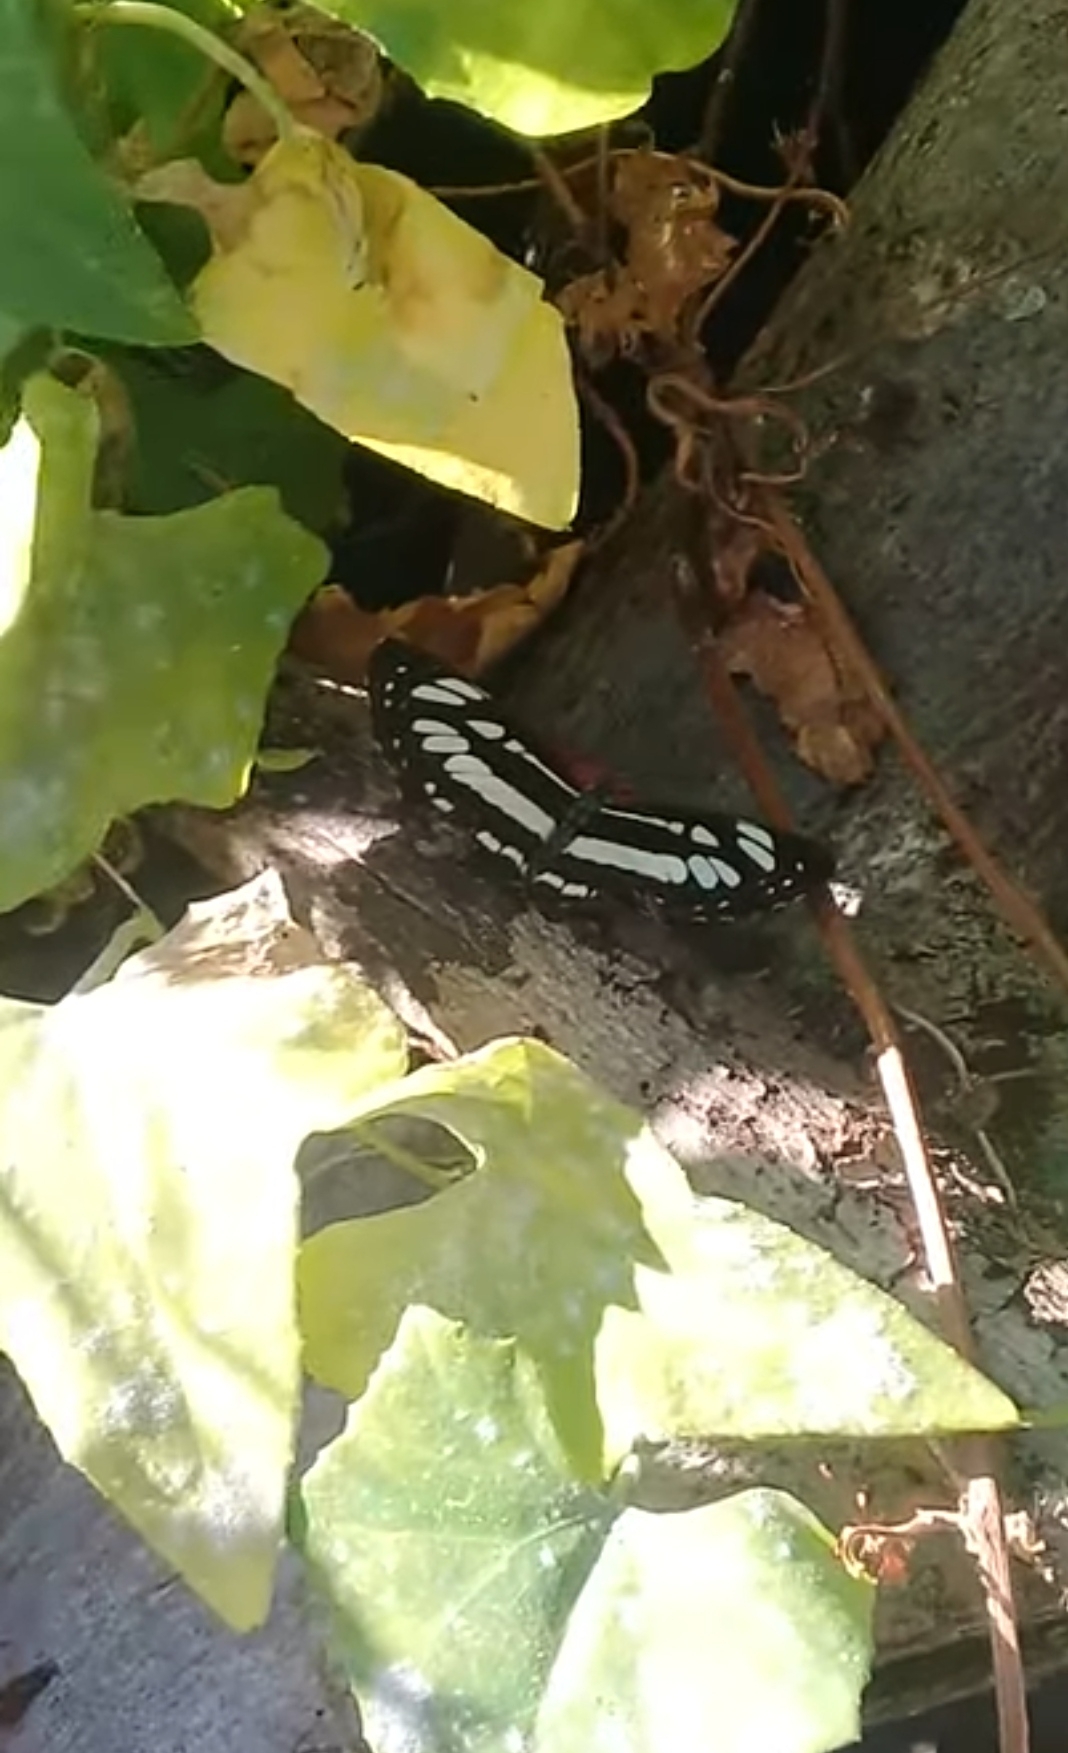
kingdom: Animalia
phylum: Arthropoda
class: Insecta
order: Lepidoptera
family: Nymphalidae
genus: Neptis
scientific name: Neptis hylas
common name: Common sailer
